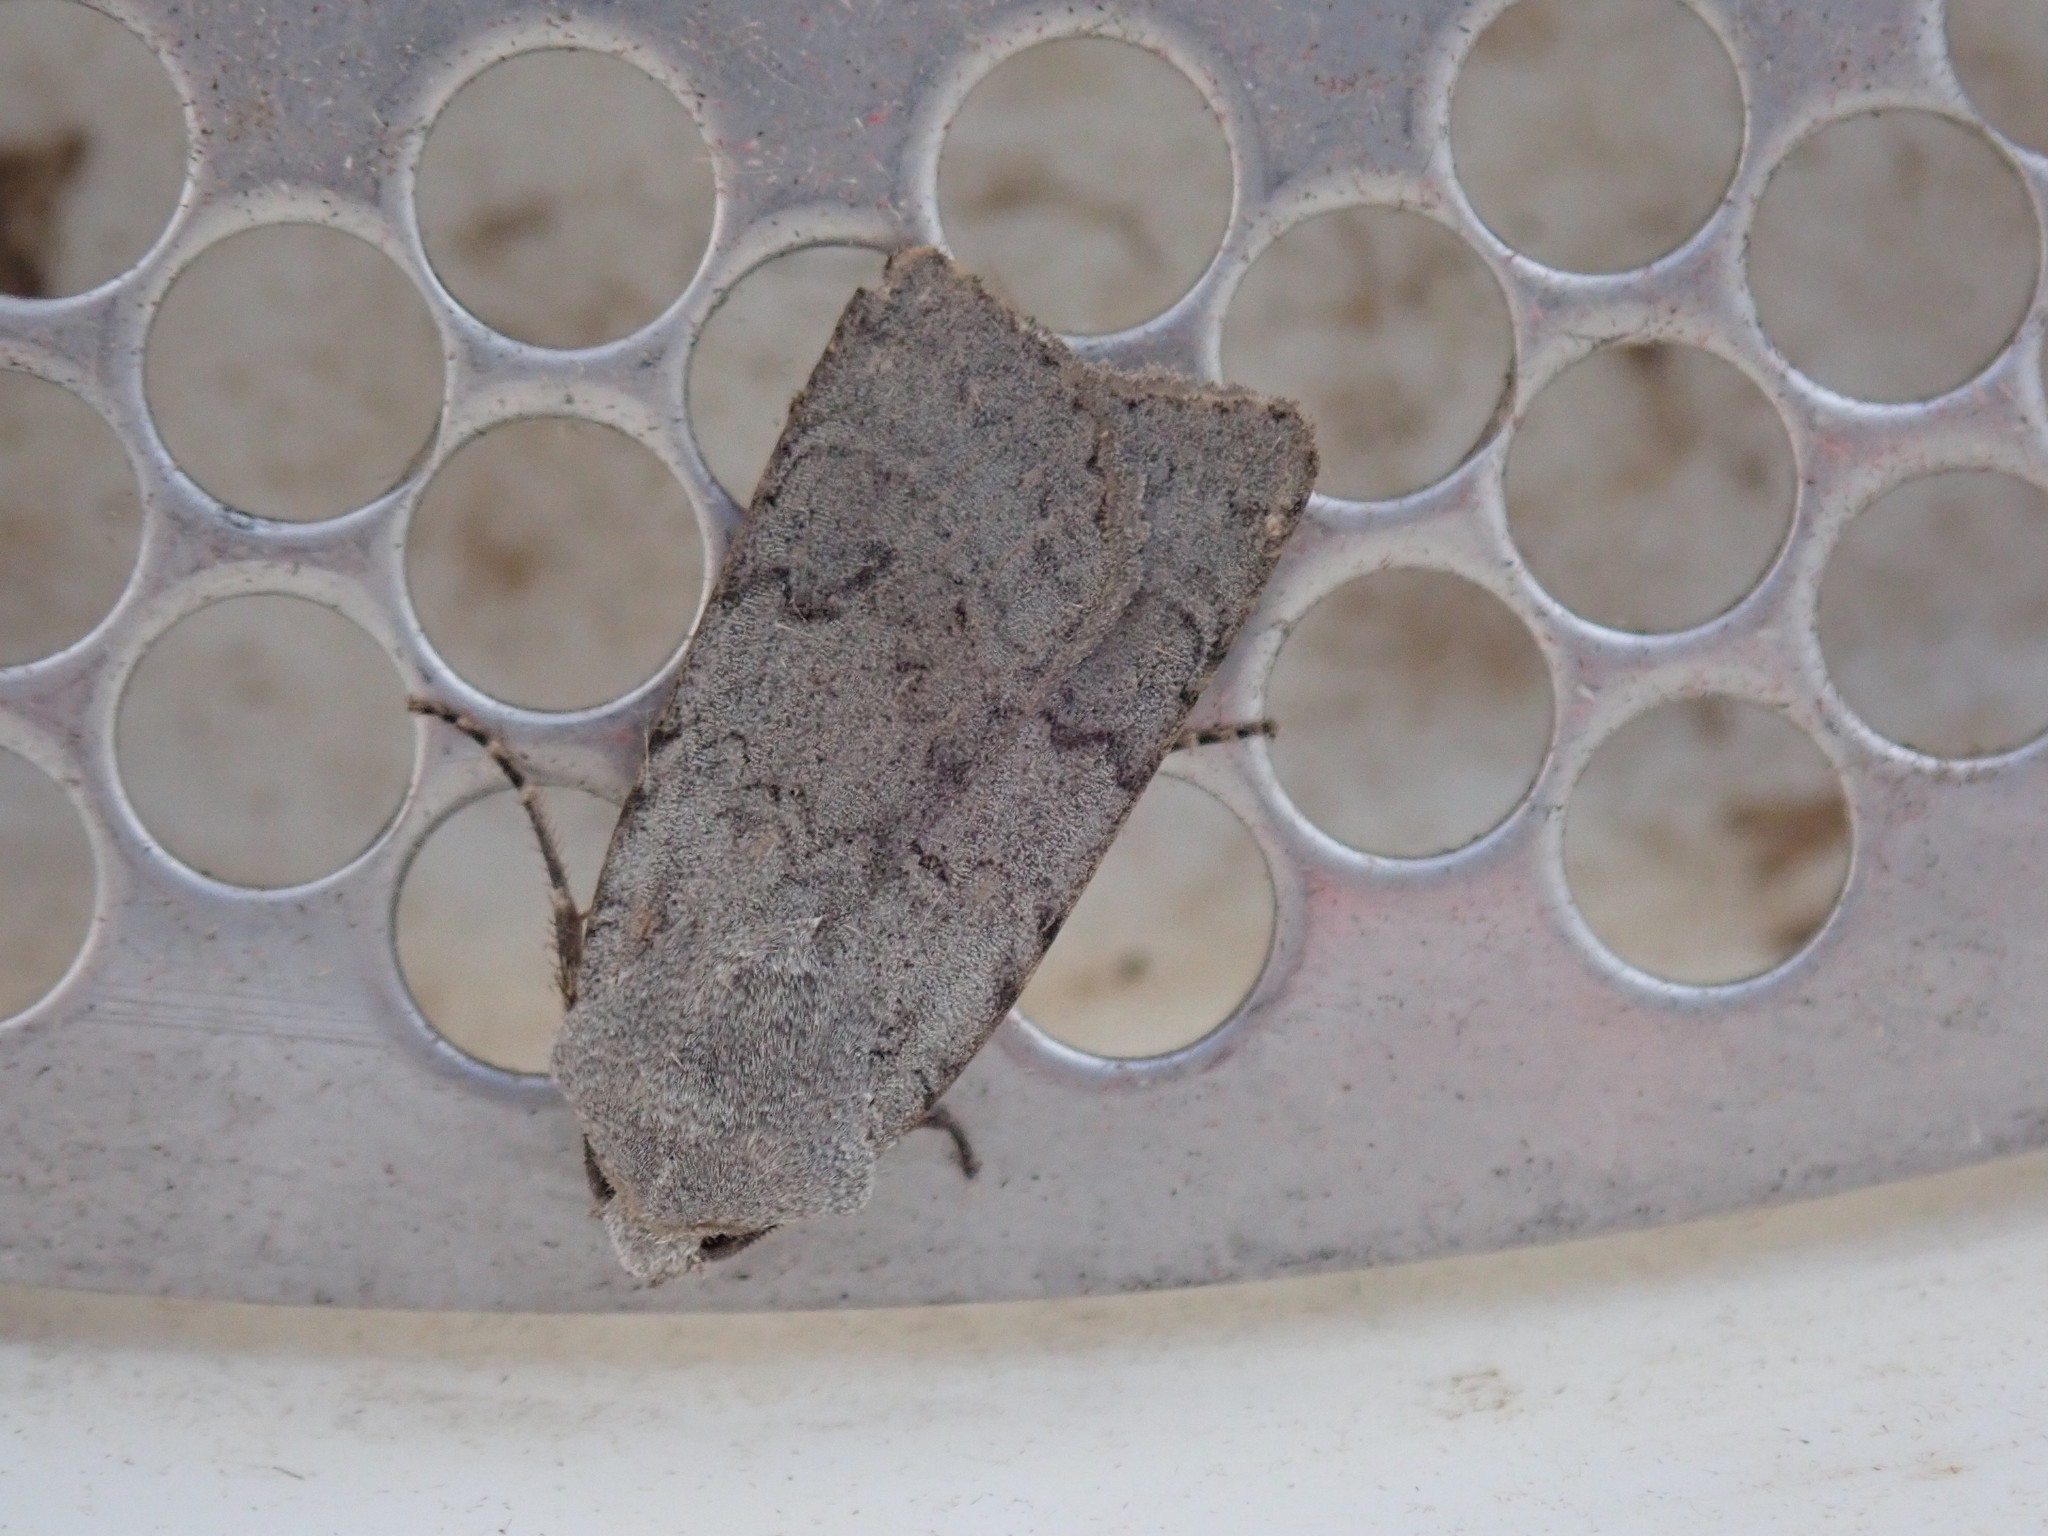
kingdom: Animalia
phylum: Arthropoda
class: Insecta
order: Lepidoptera
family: Noctuidae
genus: Euxoa
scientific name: Euxoa bostoniensis
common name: Boston dart
